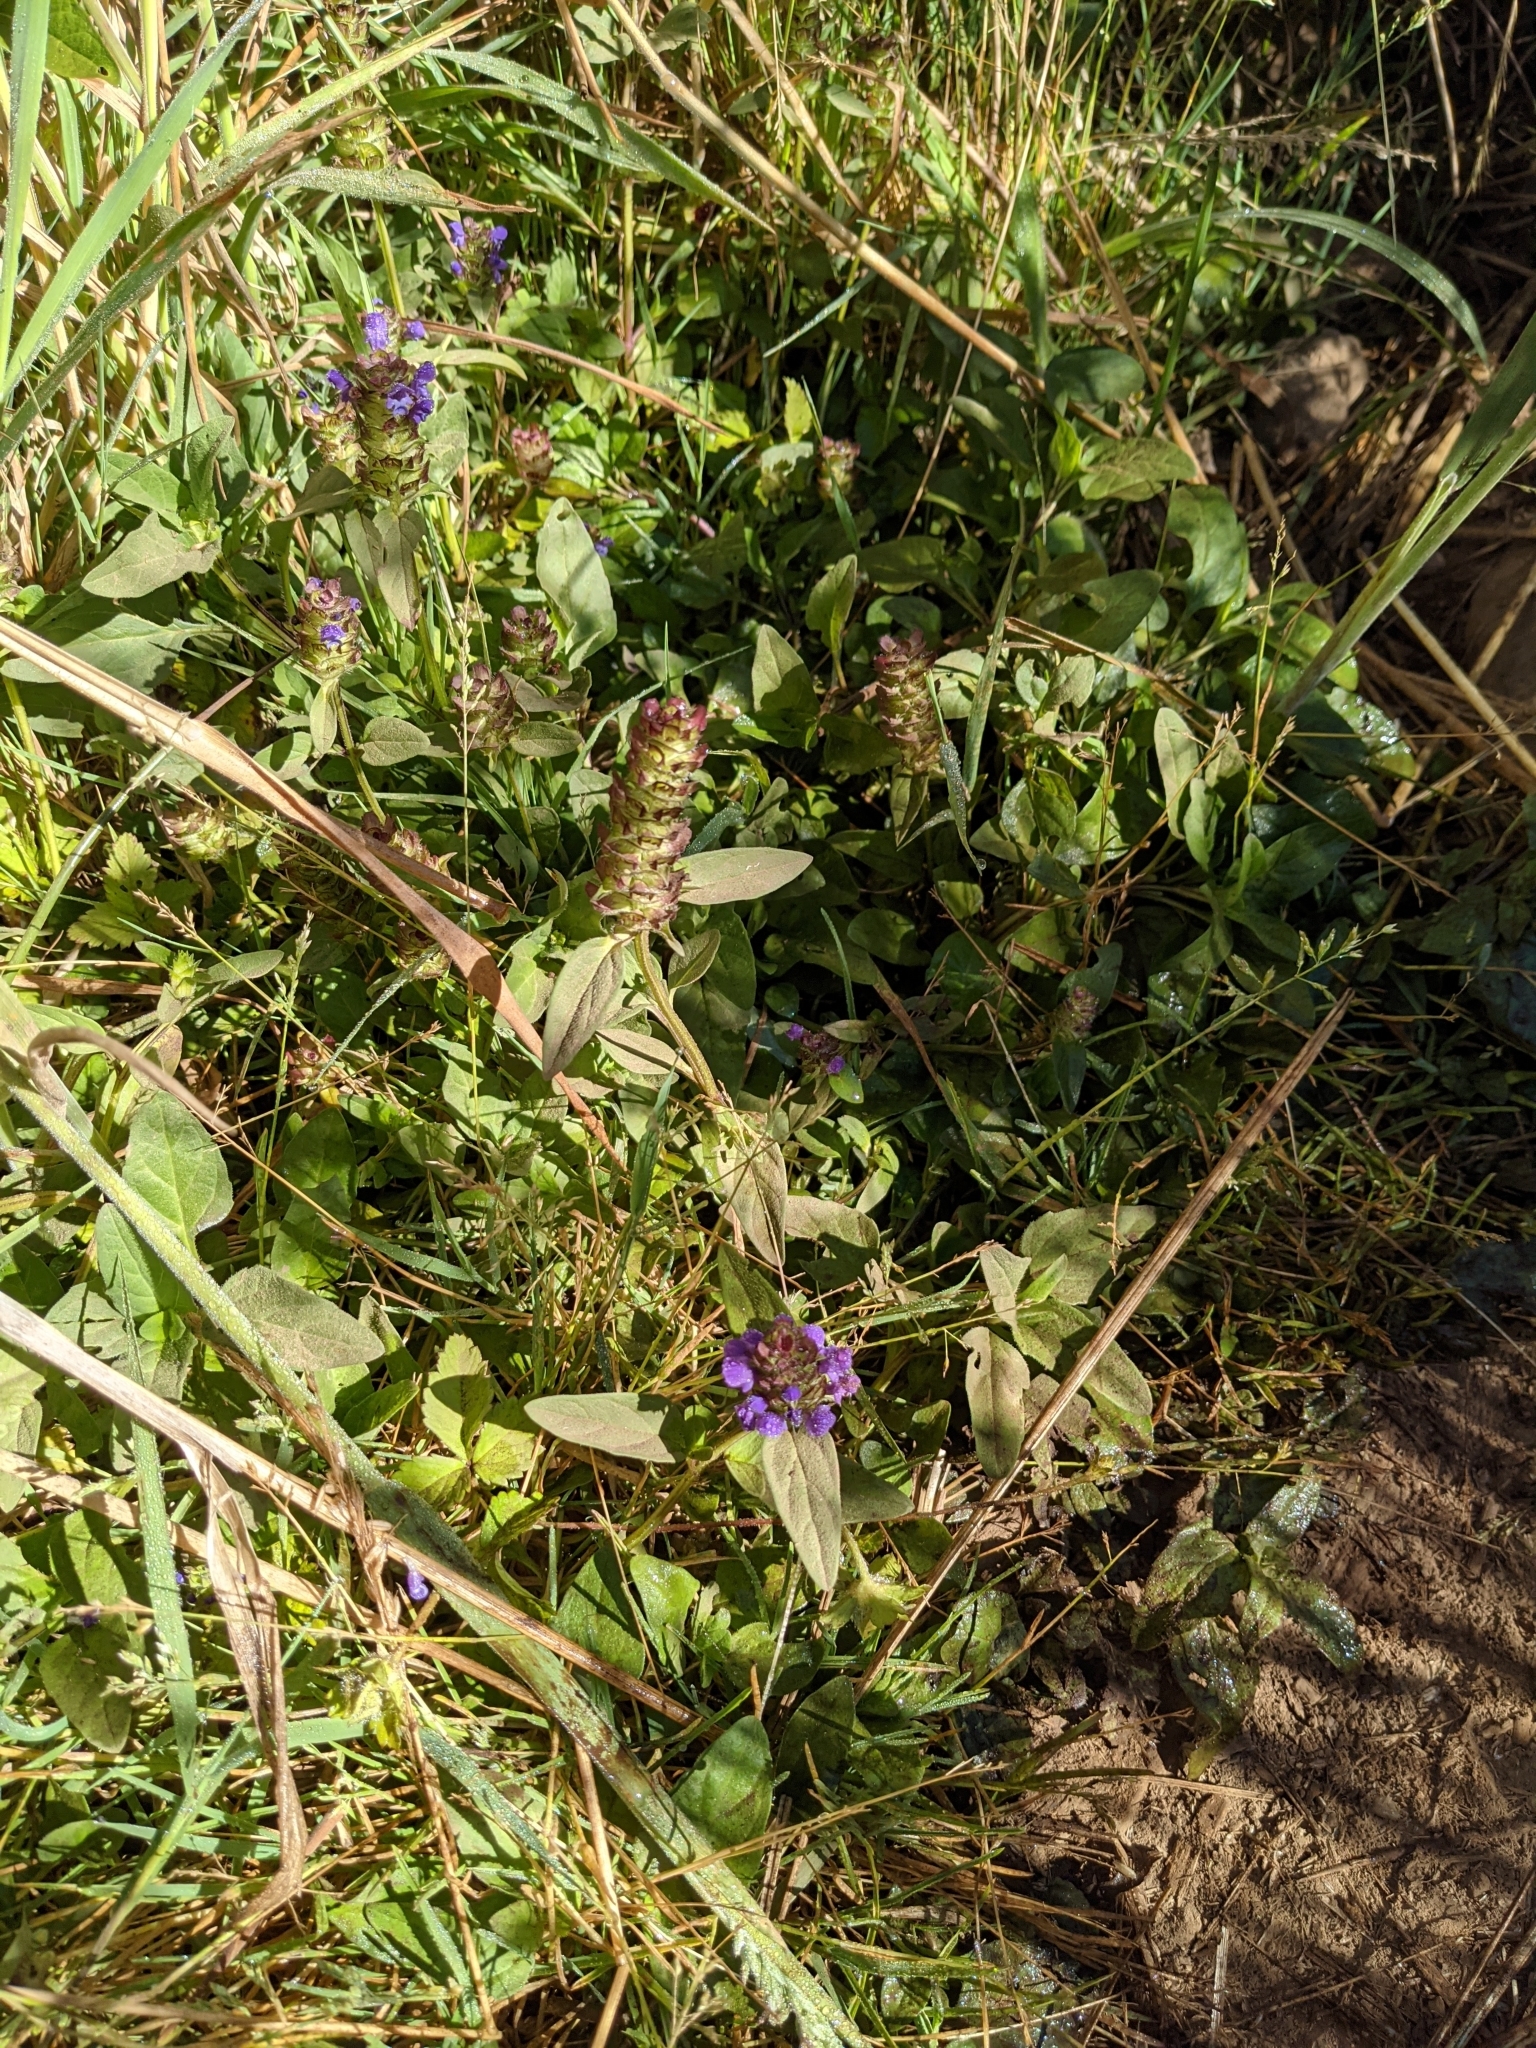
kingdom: Plantae
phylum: Tracheophyta
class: Magnoliopsida
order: Lamiales
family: Lamiaceae
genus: Prunella
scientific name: Prunella vulgaris
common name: Heal-all
